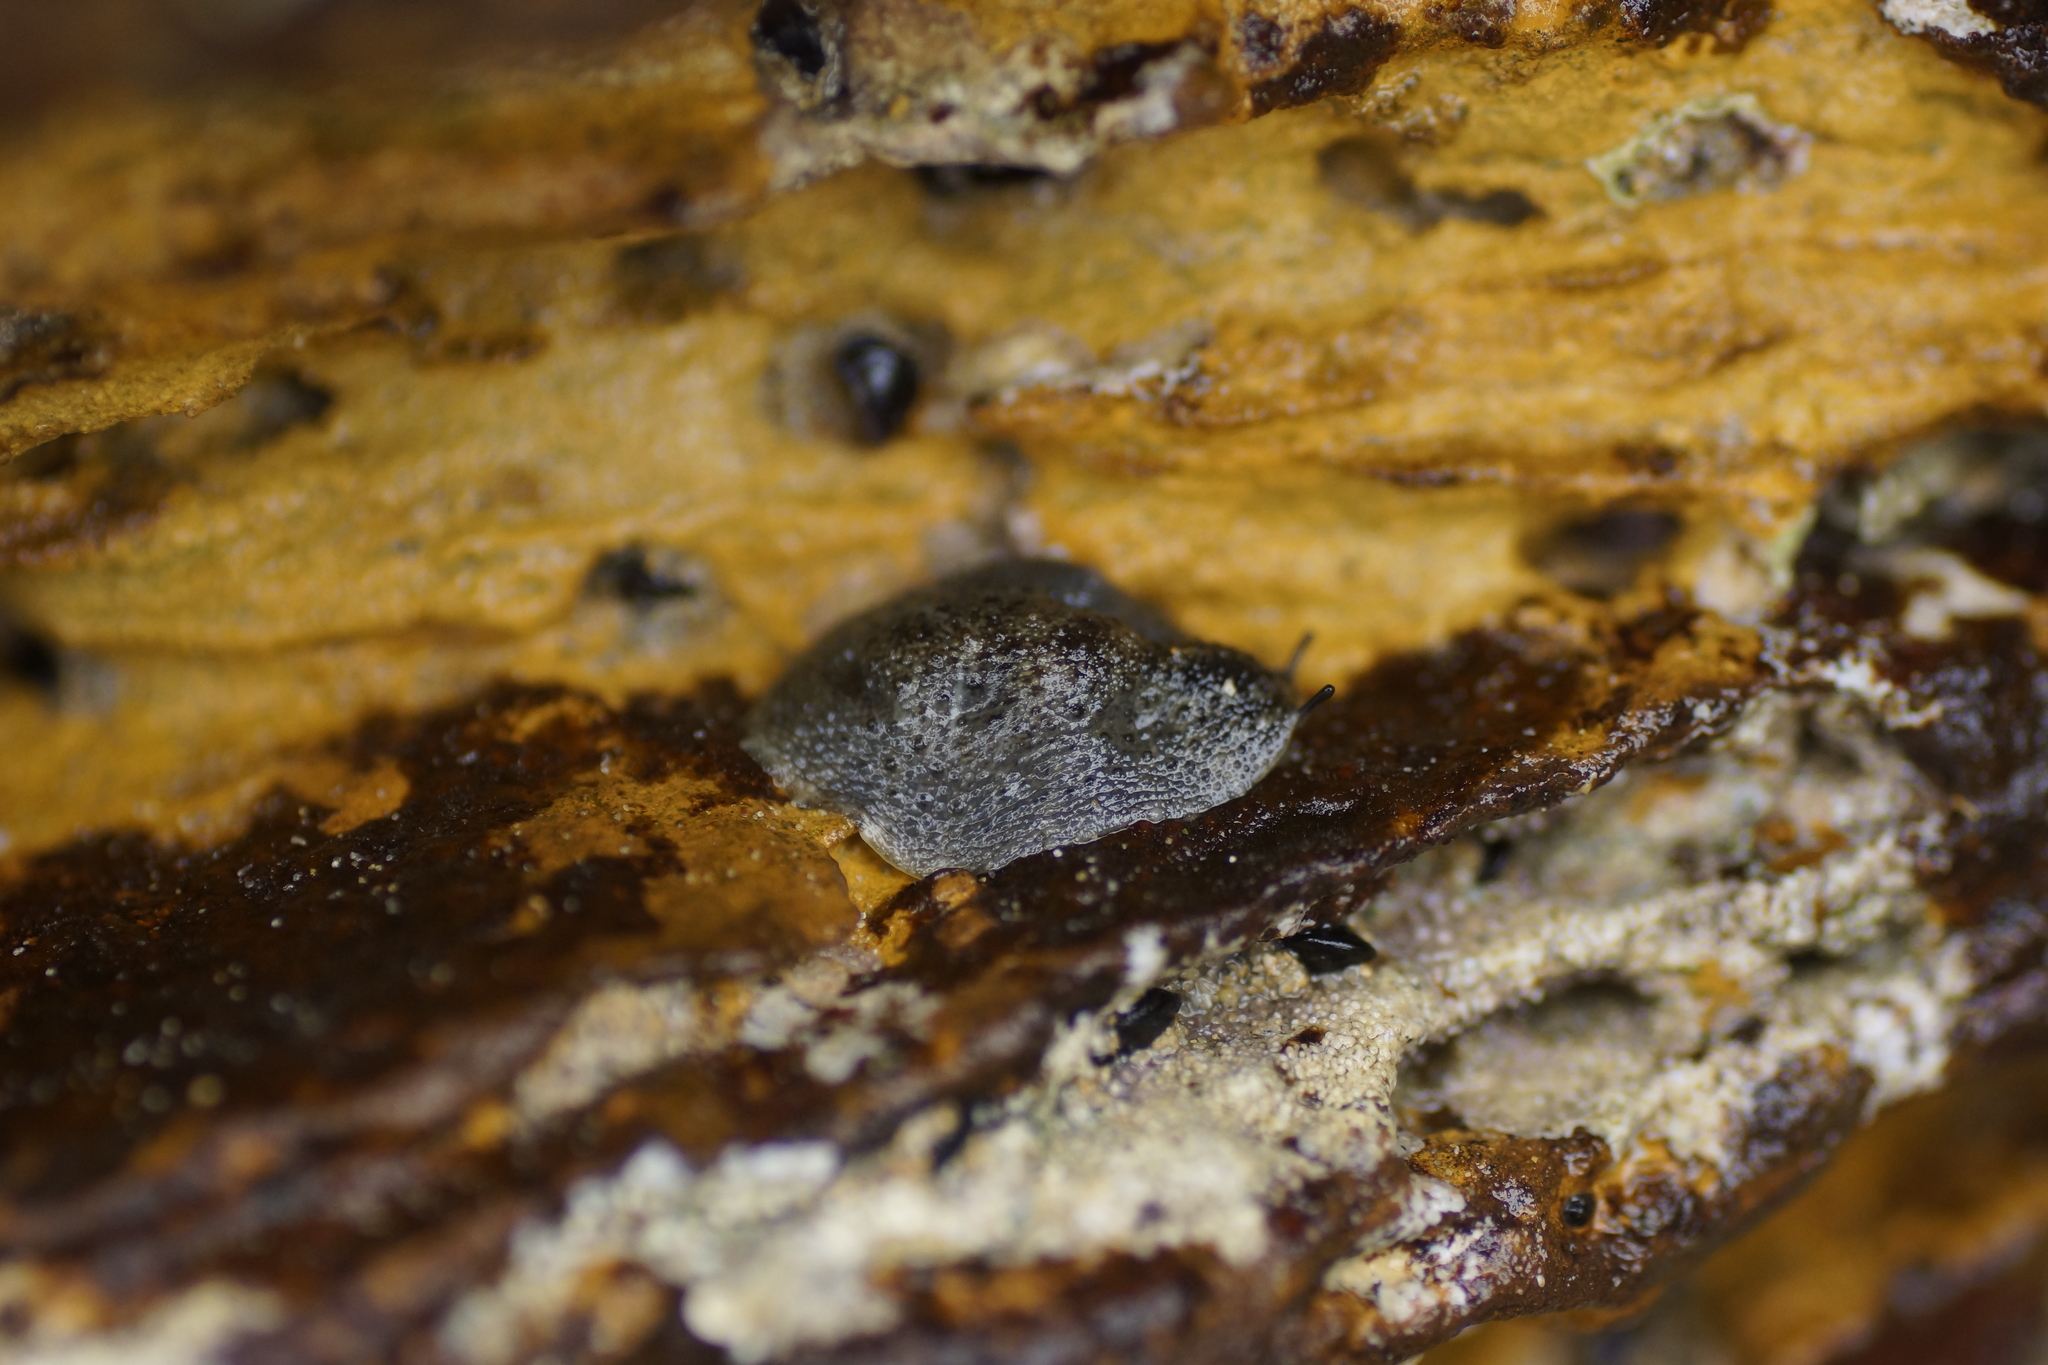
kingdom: Animalia
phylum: Mollusca
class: Gastropoda
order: Systellommatophora
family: Onchidiidae
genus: Onchidella
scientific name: Onchidella nigricans
